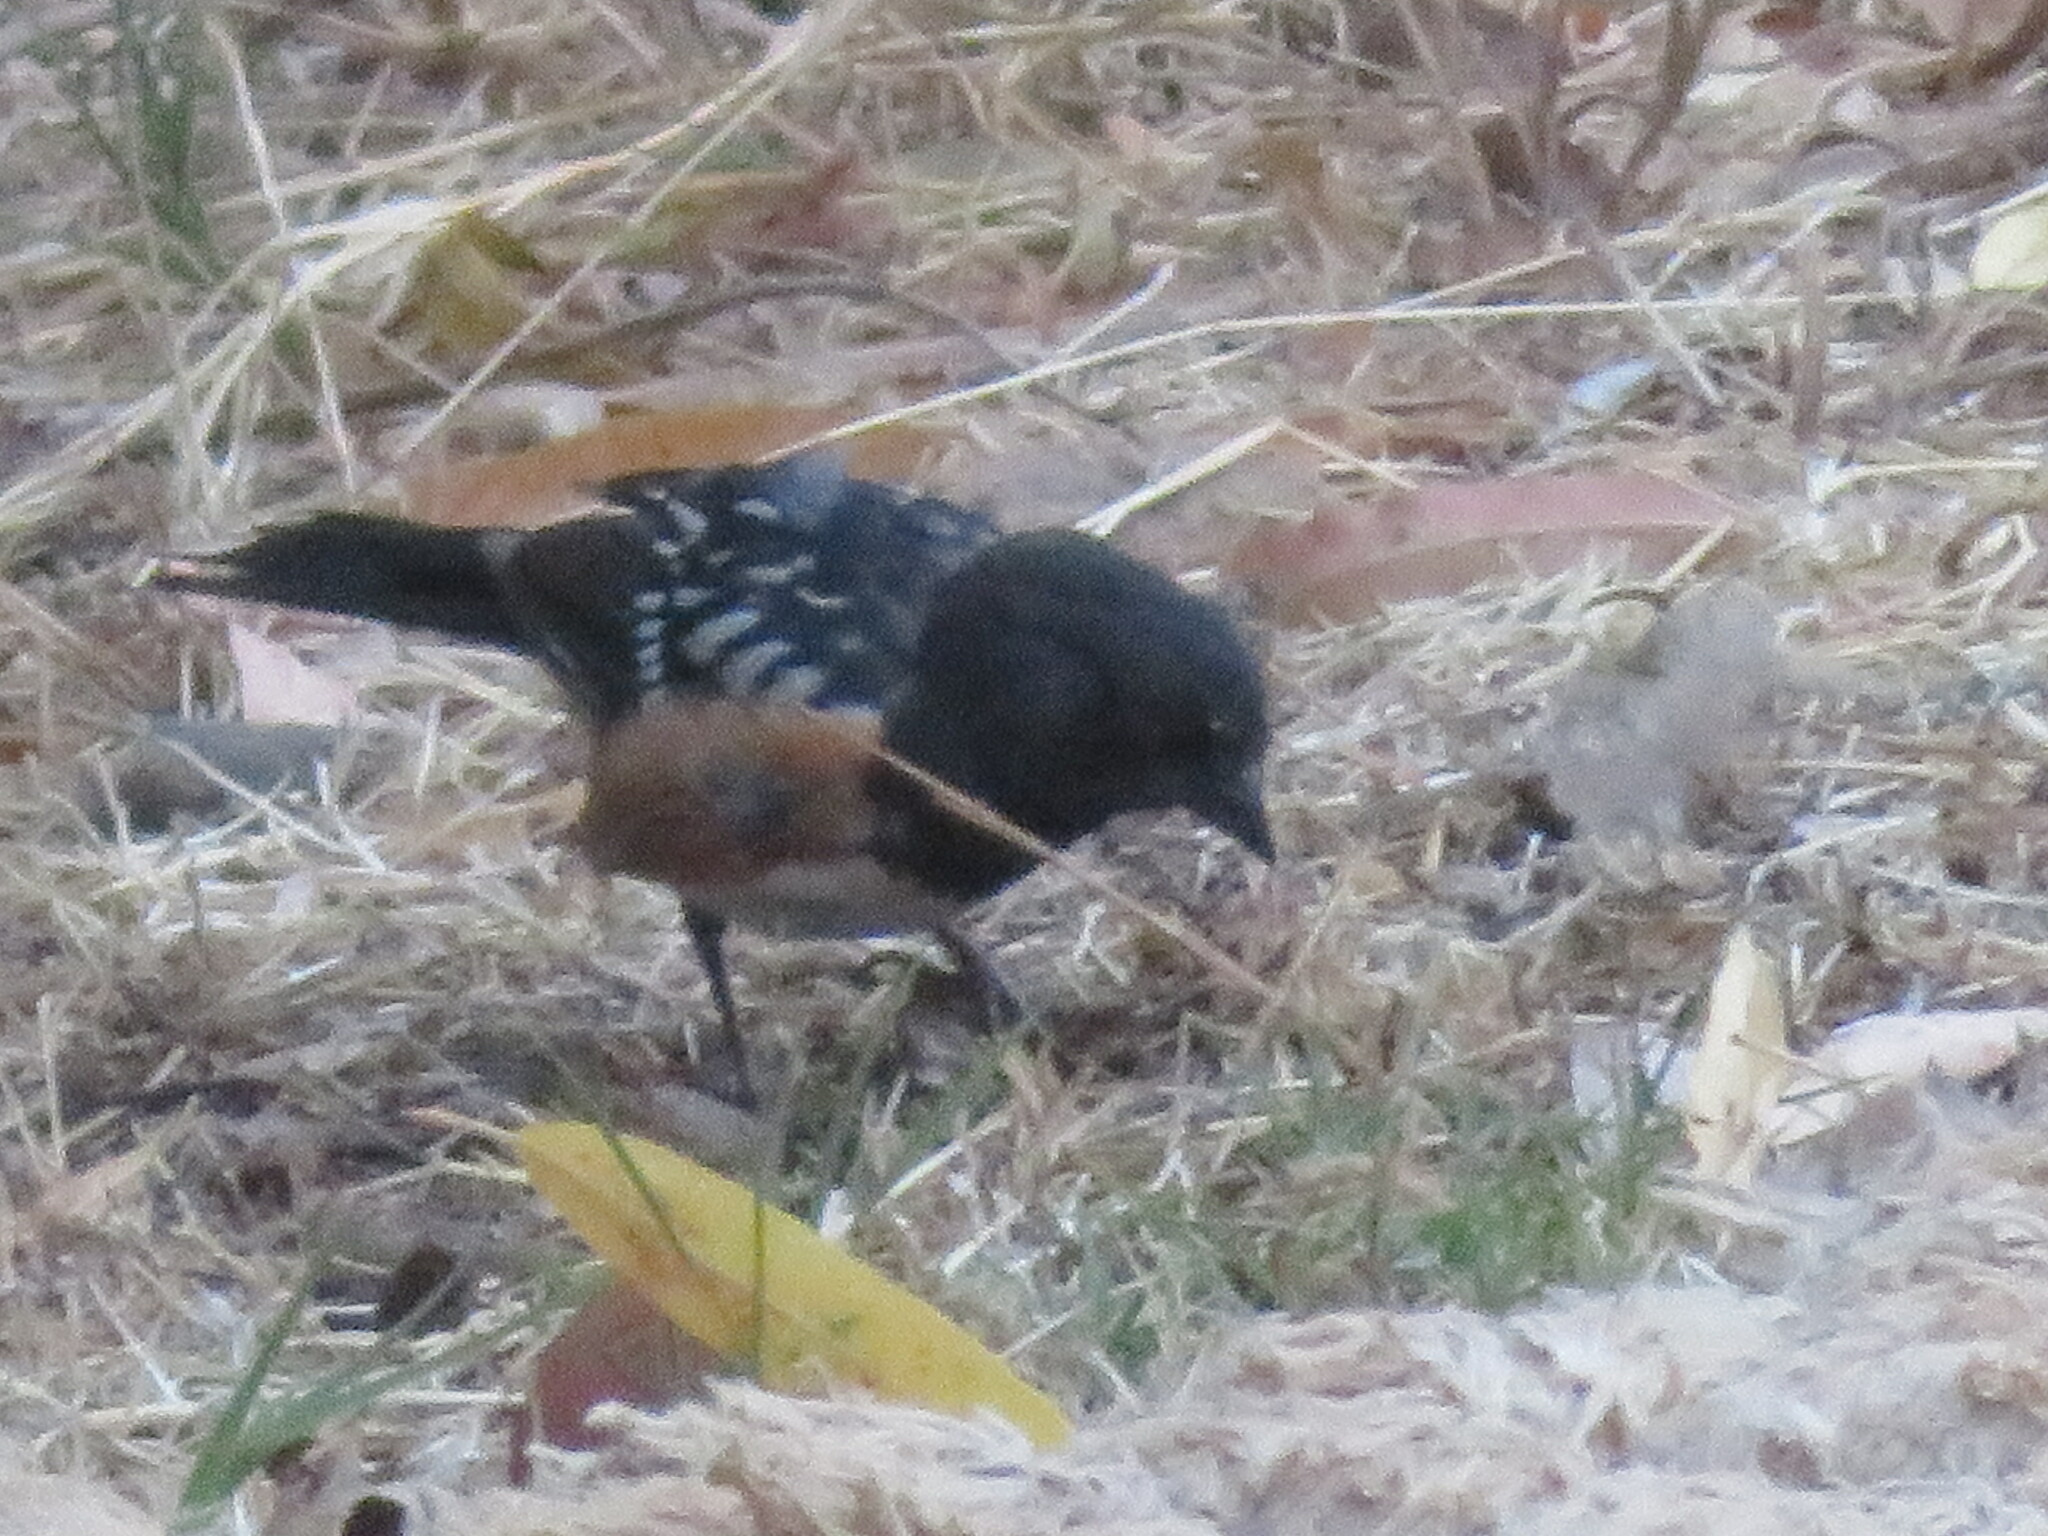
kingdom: Animalia
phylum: Chordata
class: Aves
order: Passeriformes
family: Passerellidae
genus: Pipilo
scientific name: Pipilo maculatus
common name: Spotted towhee
